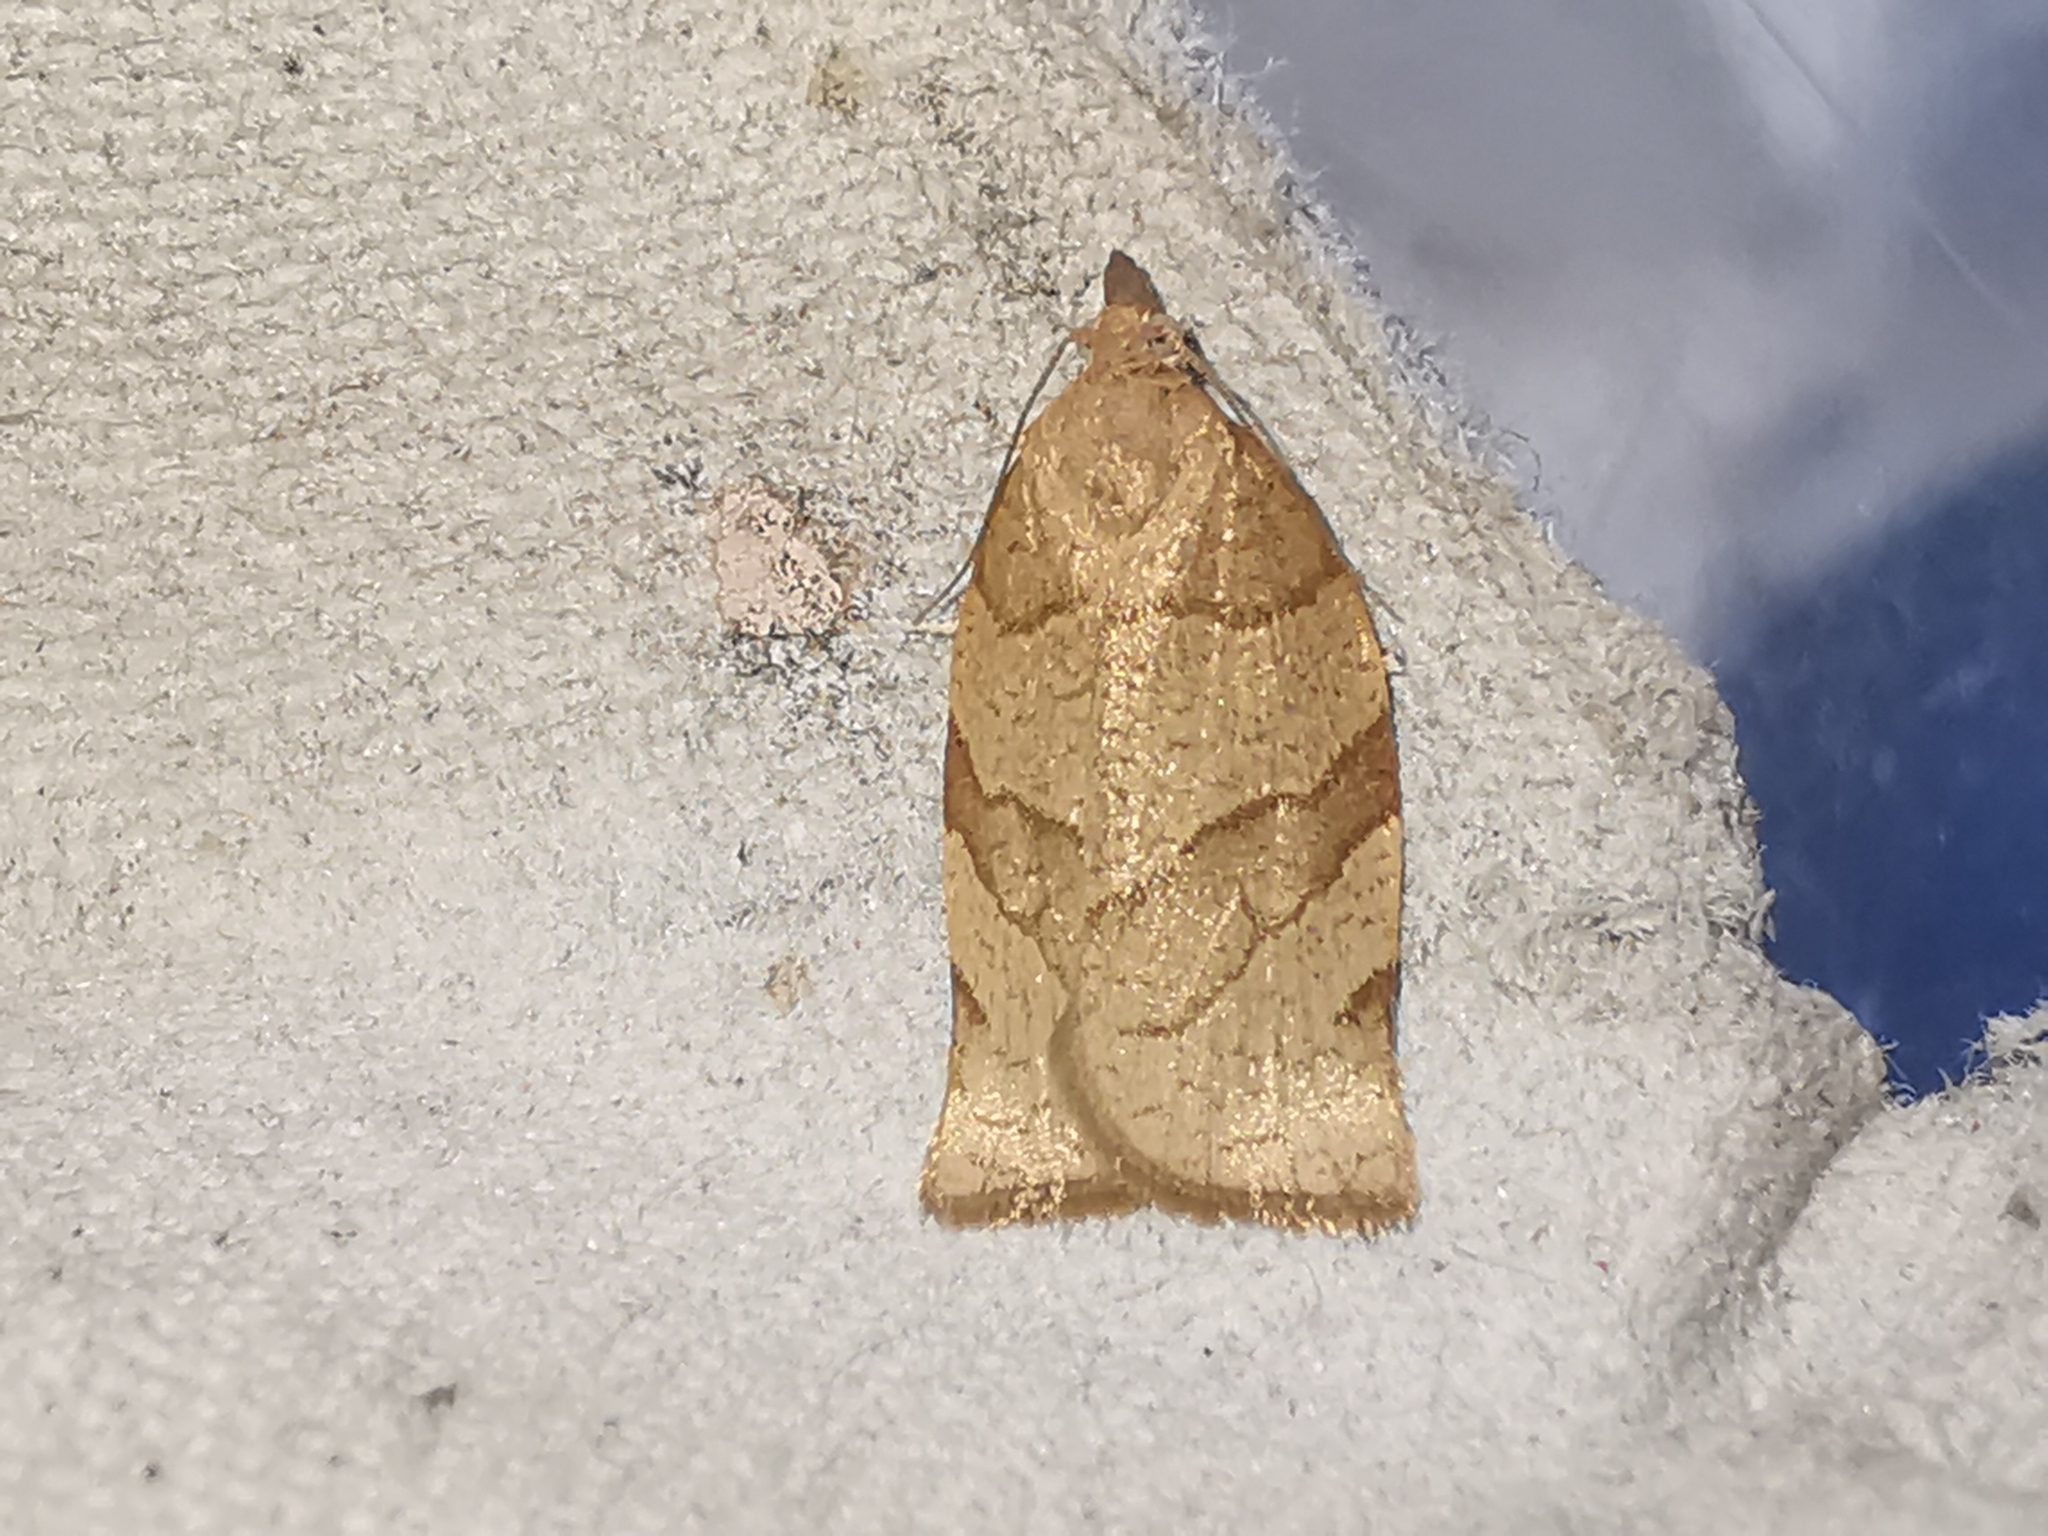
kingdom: Animalia
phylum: Arthropoda
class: Insecta
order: Lepidoptera
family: Tortricidae
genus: Pandemis
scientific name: Pandemis cerasana
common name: Barred fruit-tree tortrix
